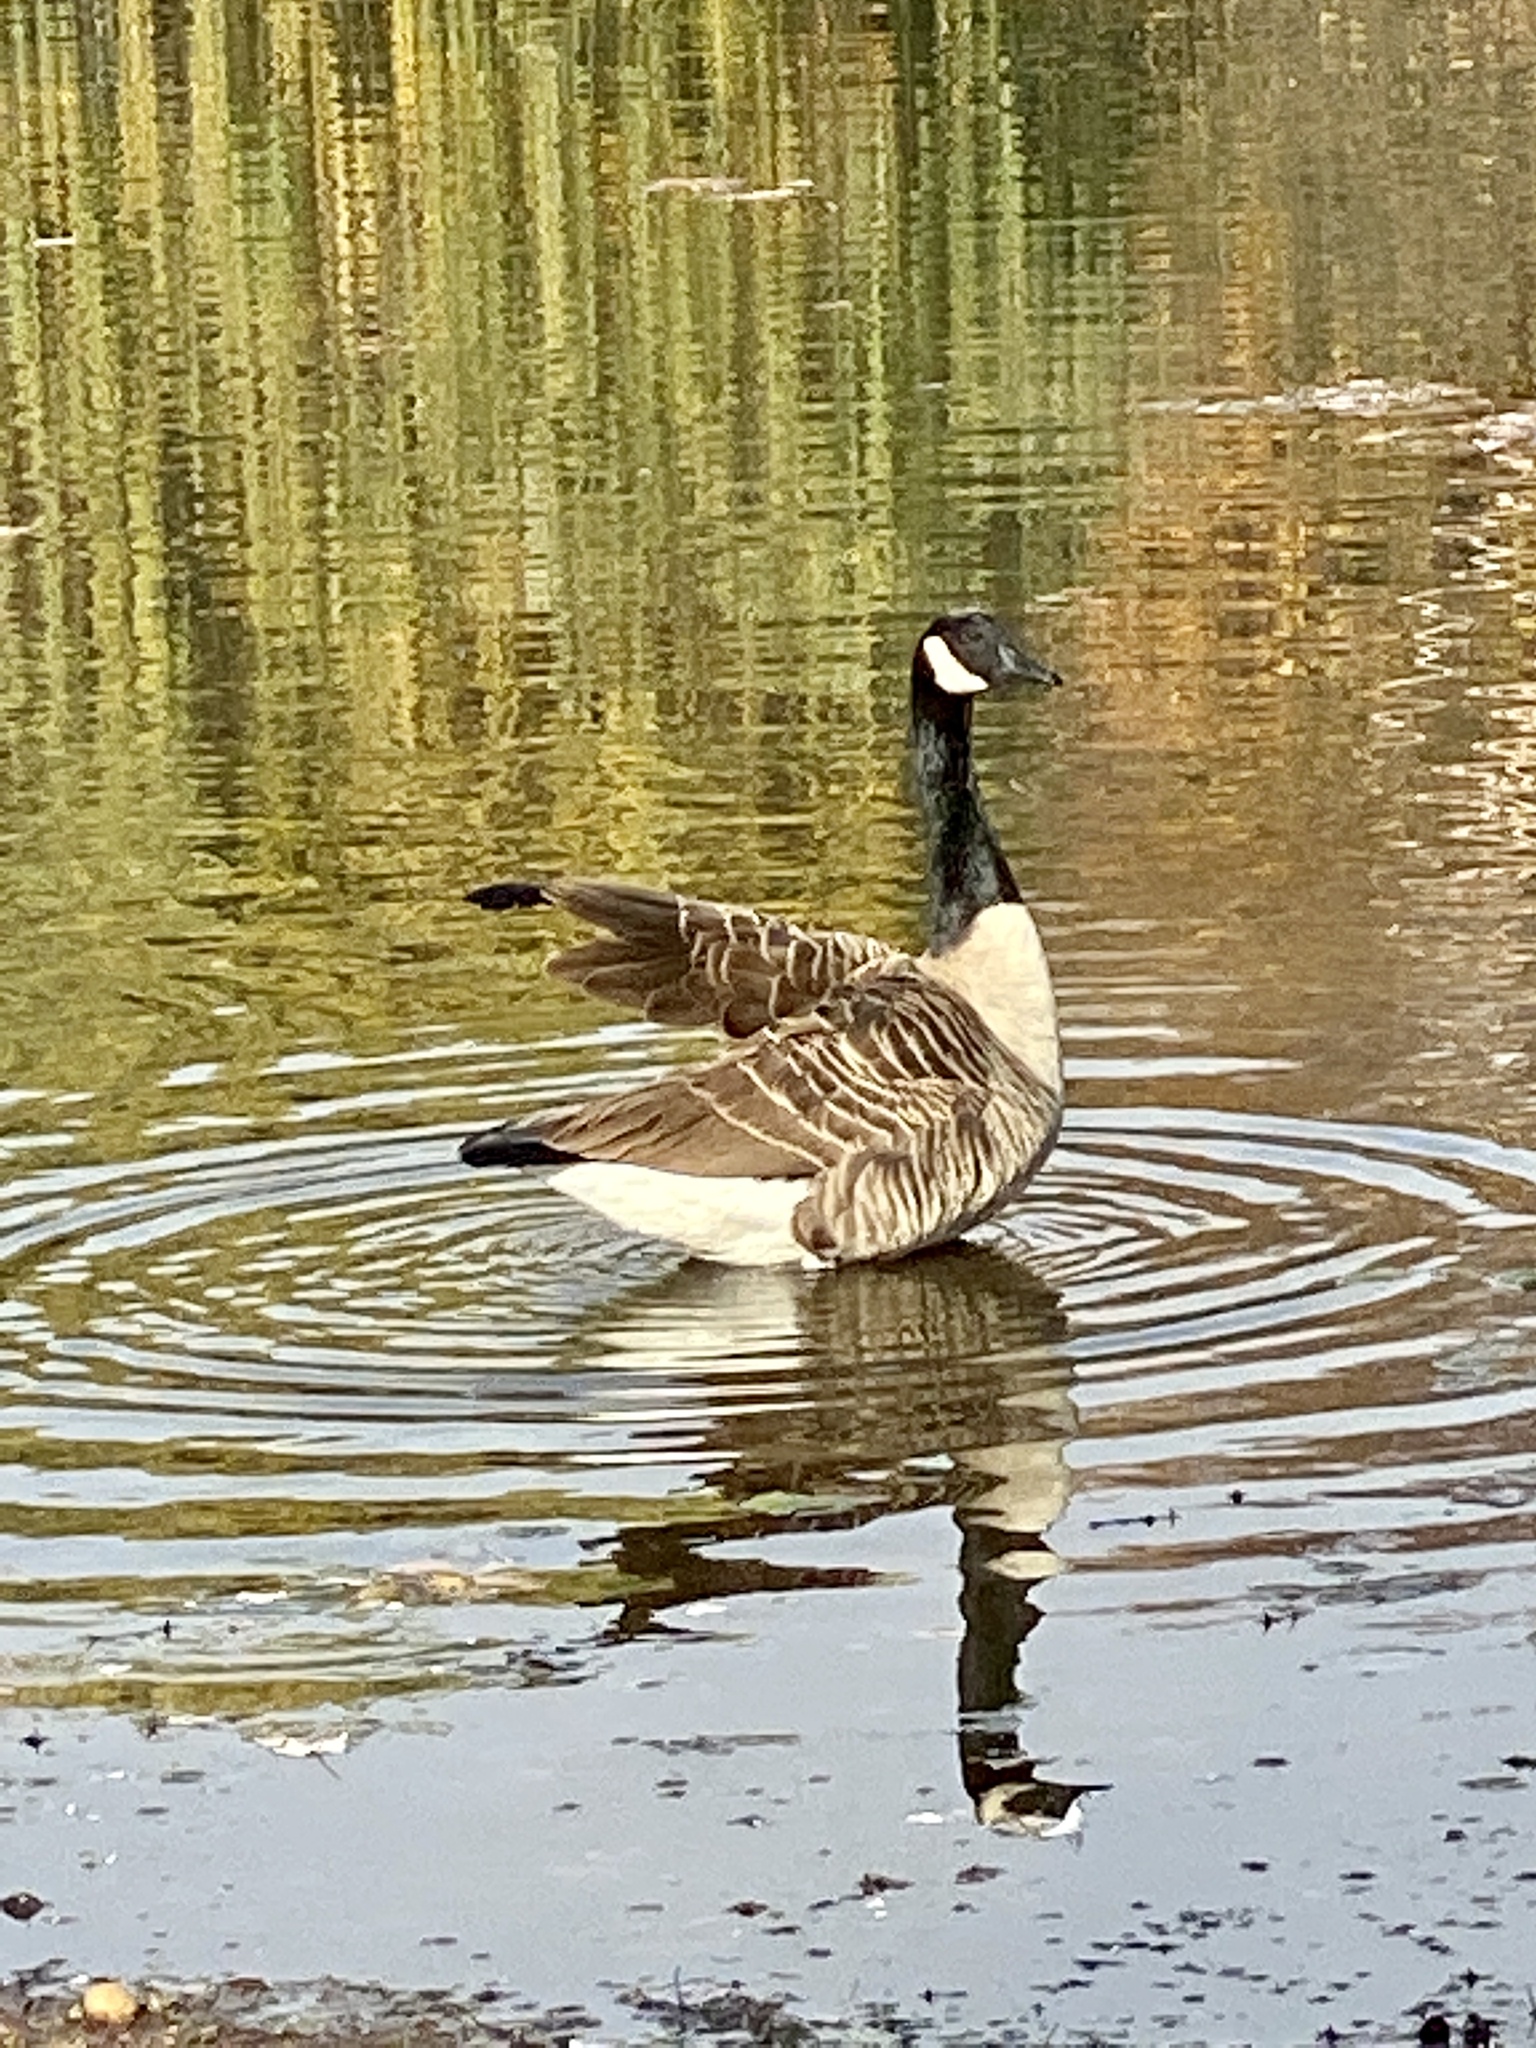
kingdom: Animalia
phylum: Chordata
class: Aves
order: Anseriformes
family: Anatidae
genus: Branta
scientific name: Branta canadensis
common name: Canada goose
